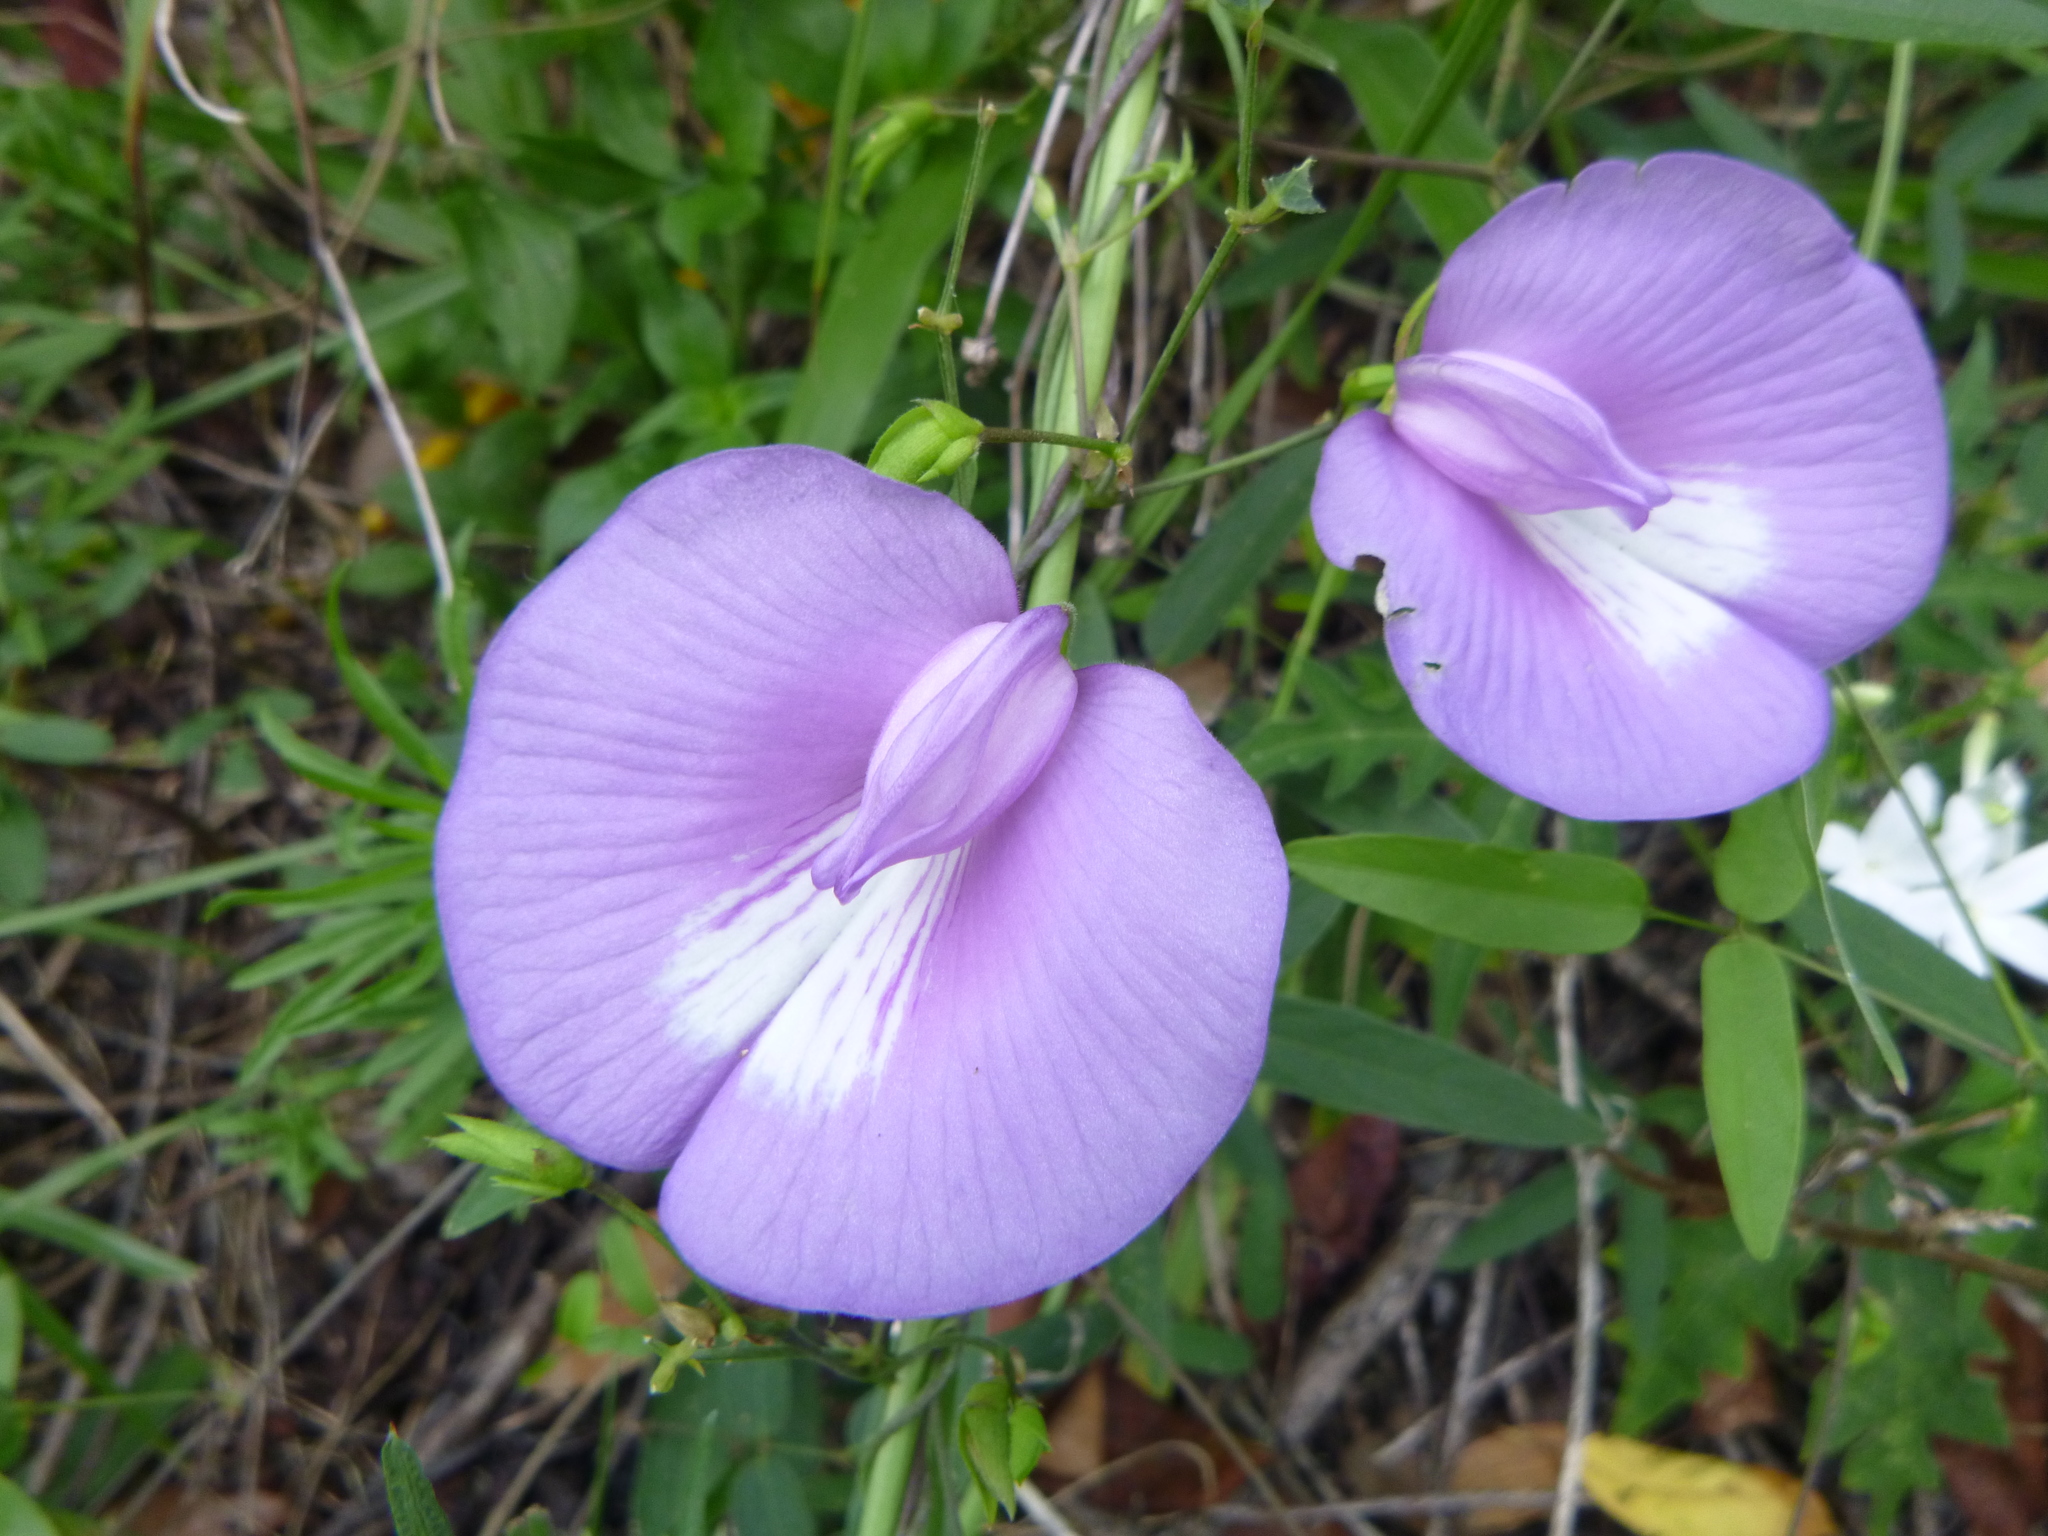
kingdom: Plantae
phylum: Tracheophyta
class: Magnoliopsida
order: Fabales
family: Fabaceae
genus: Centrosema
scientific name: Centrosema virginianum
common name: Butterfly-pea
